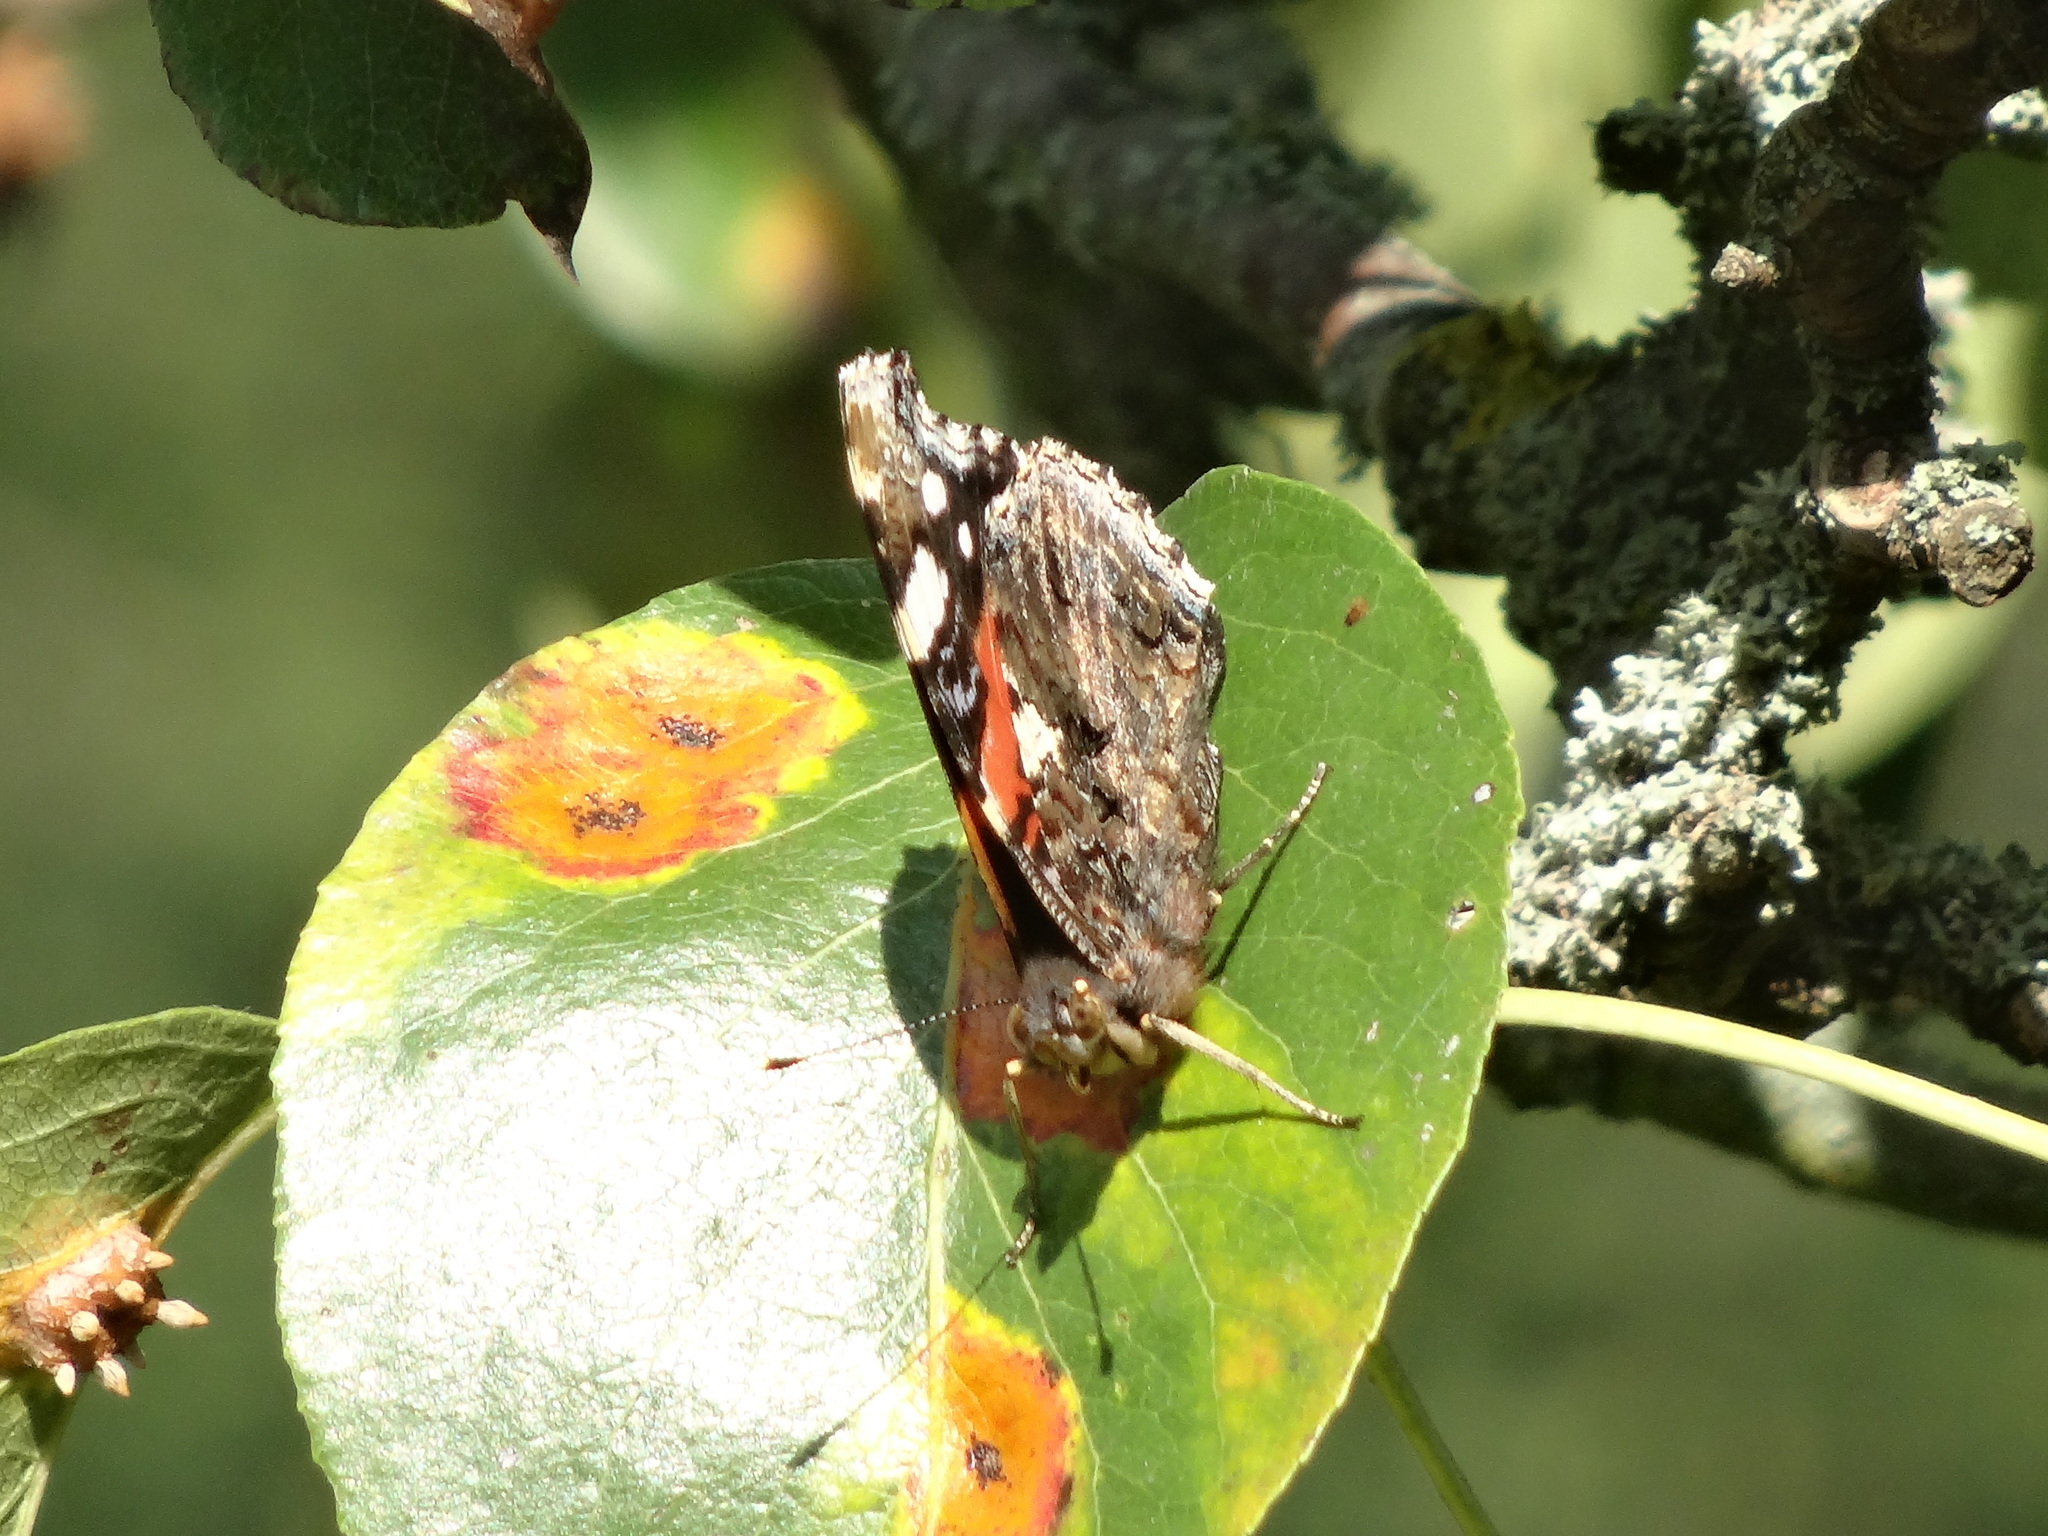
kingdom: Animalia
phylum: Arthropoda
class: Insecta
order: Lepidoptera
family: Nymphalidae
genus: Vanessa
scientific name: Vanessa atalanta
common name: Red admiral
